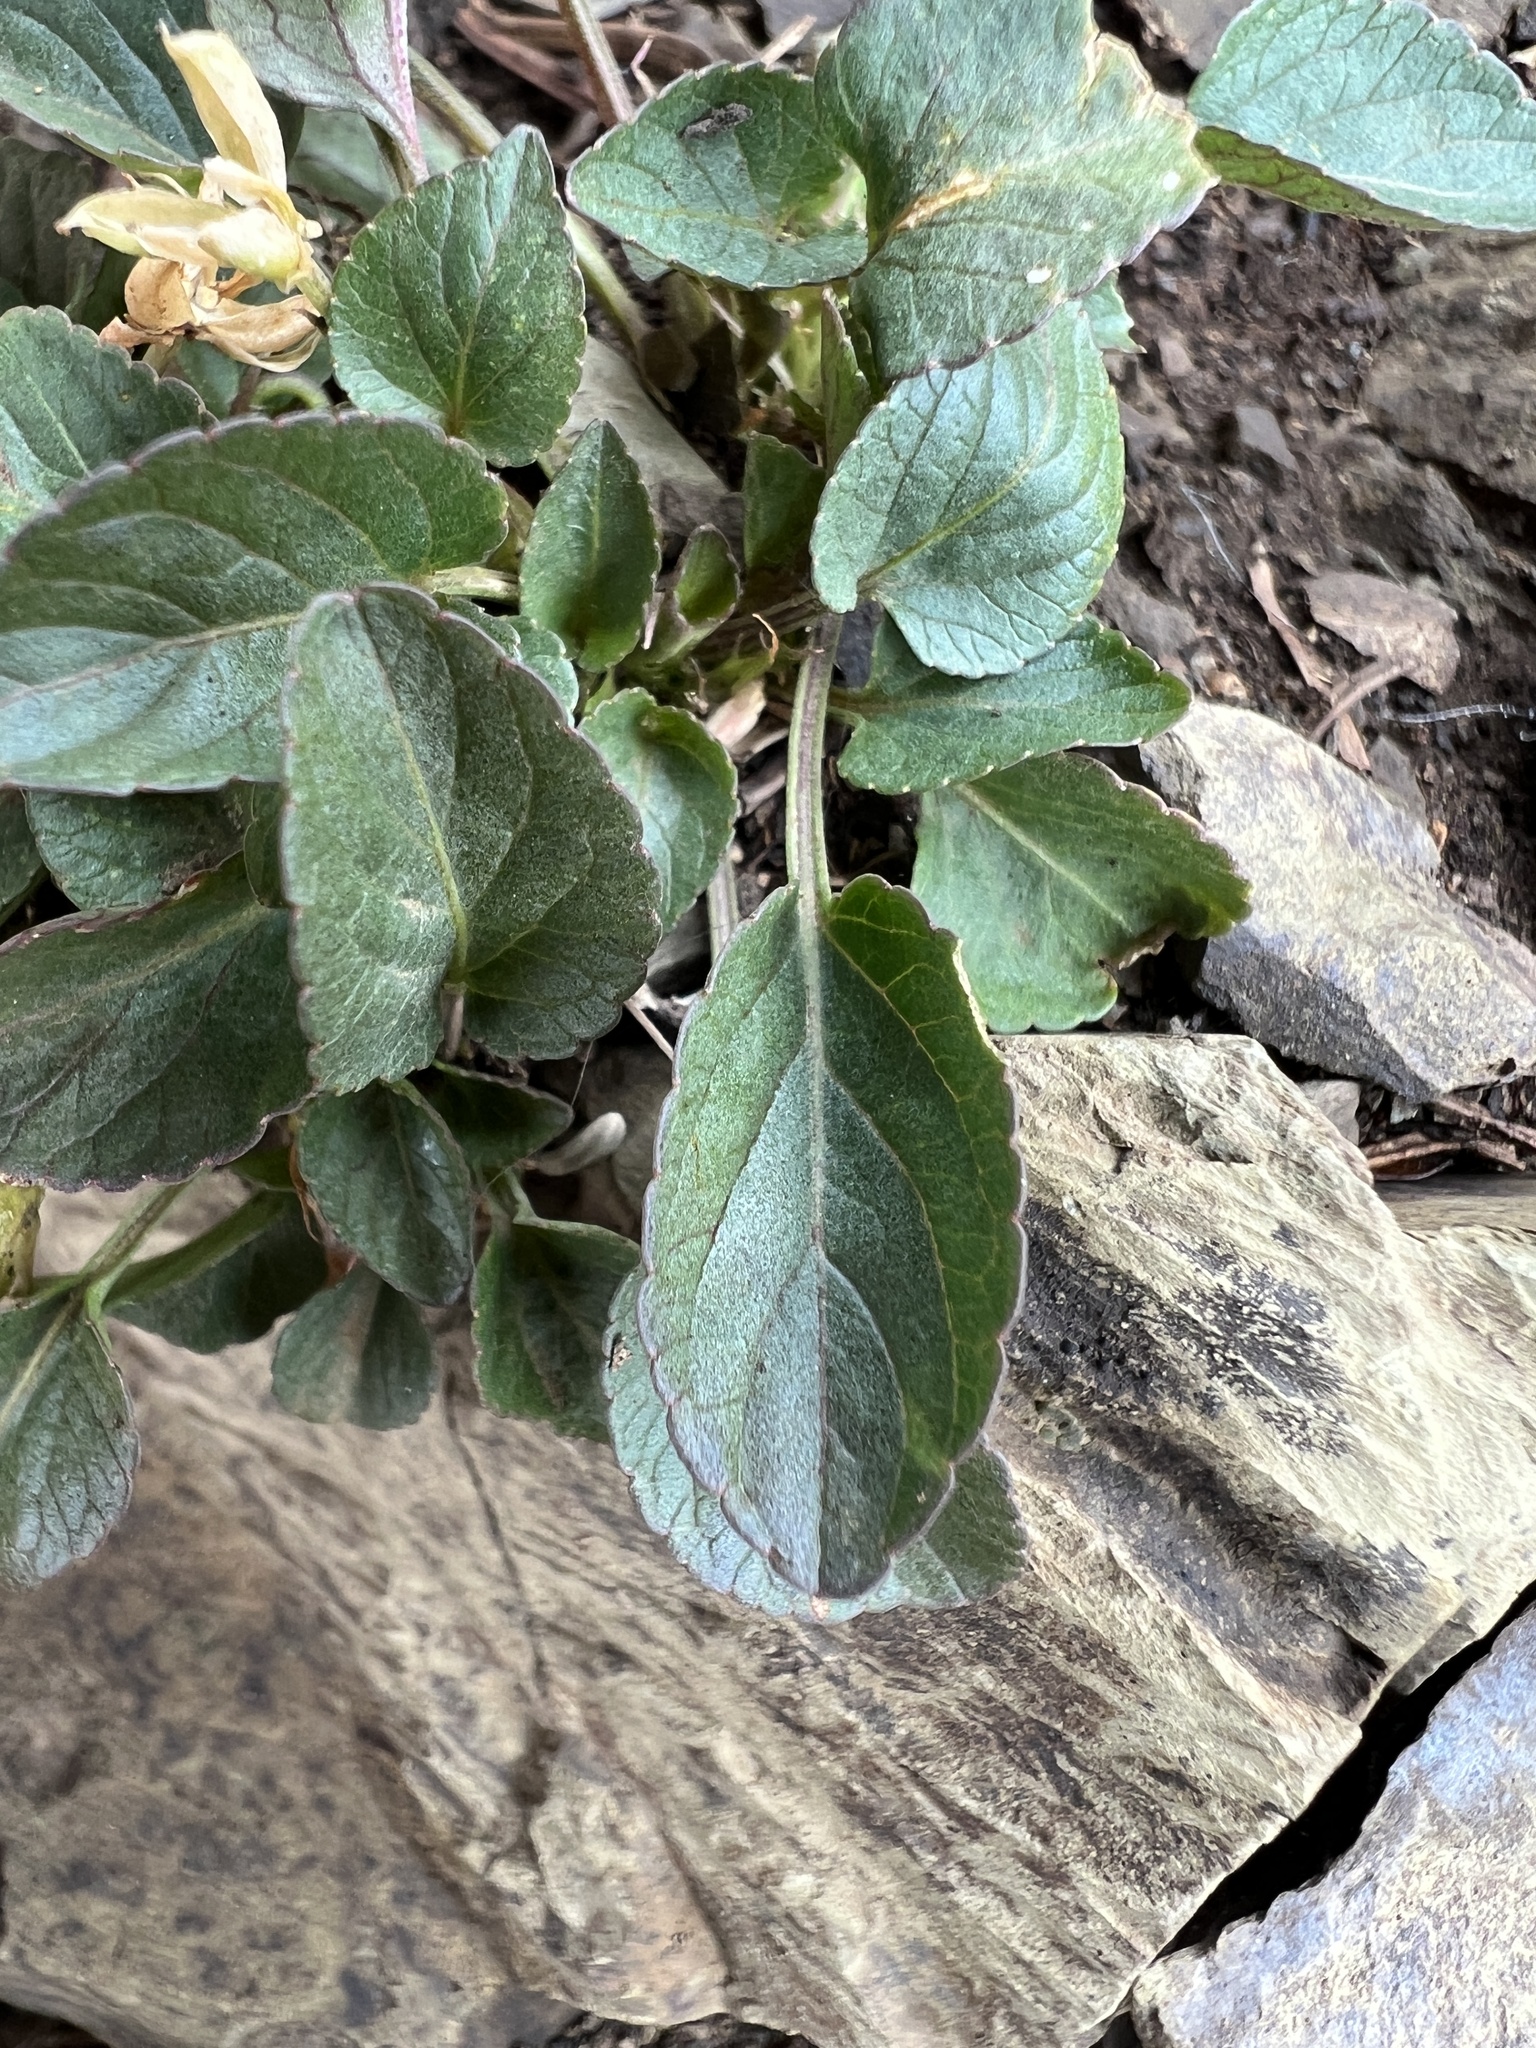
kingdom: Plantae
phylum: Tracheophyta
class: Magnoliopsida
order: Malpighiales
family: Violaceae
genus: Viola
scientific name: Viola adunca
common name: Sand violet
